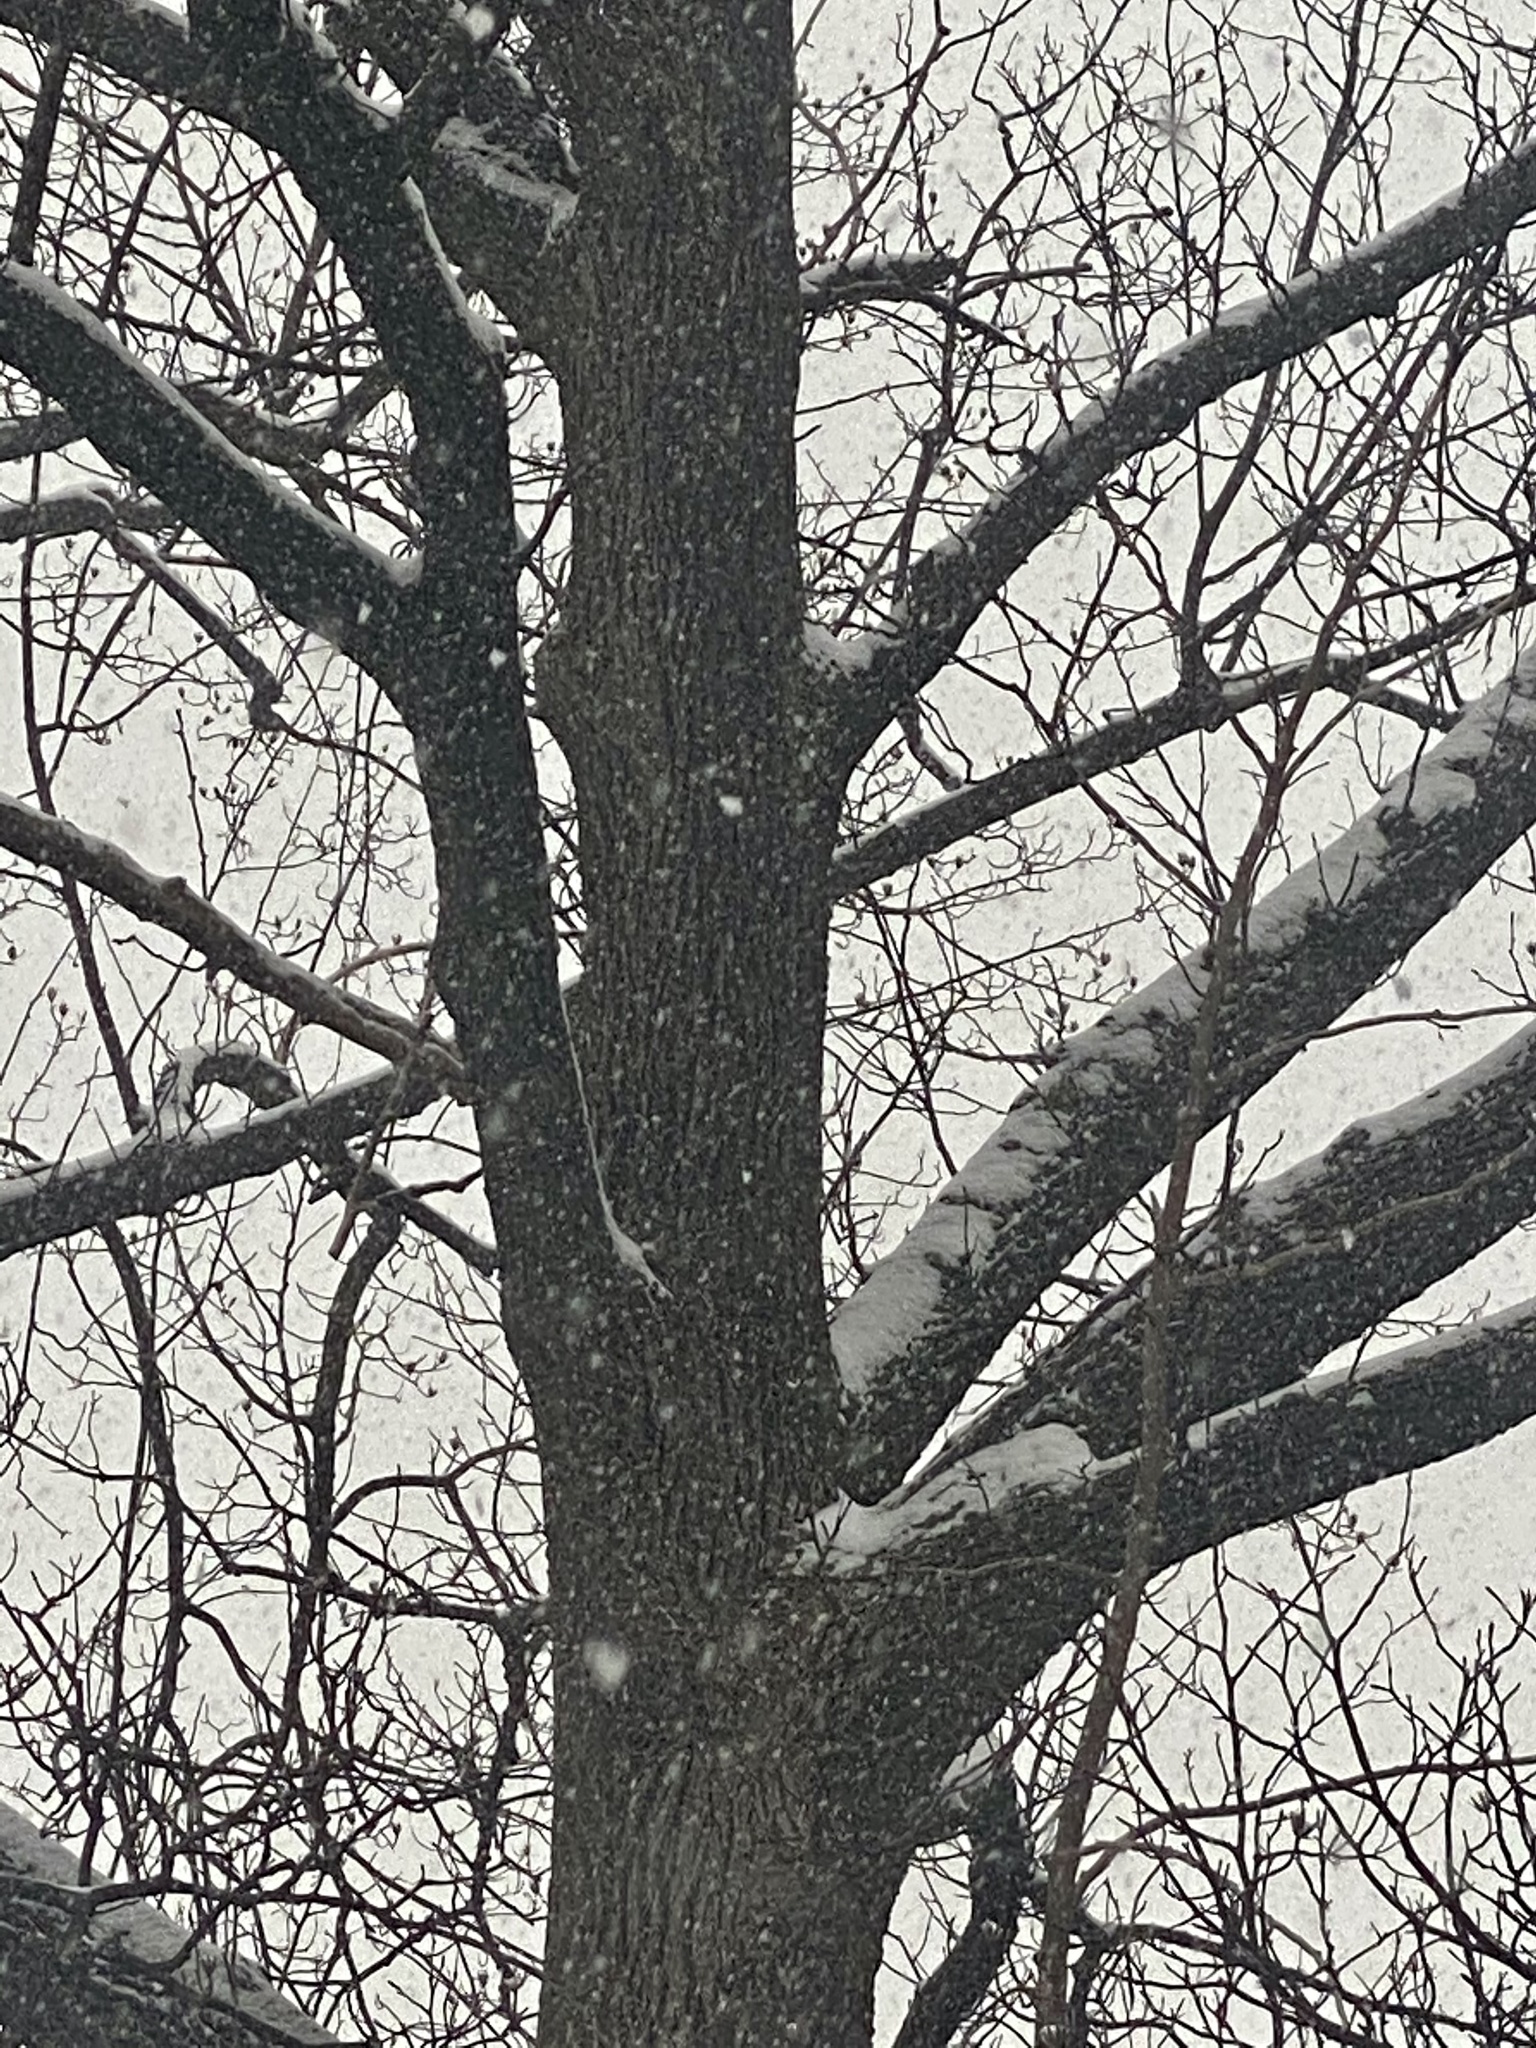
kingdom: Animalia
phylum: Chordata
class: Mammalia
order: Rodentia
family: Sciuridae
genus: Sciurus
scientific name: Sciurus carolinensis
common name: Eastern gray squirrel
